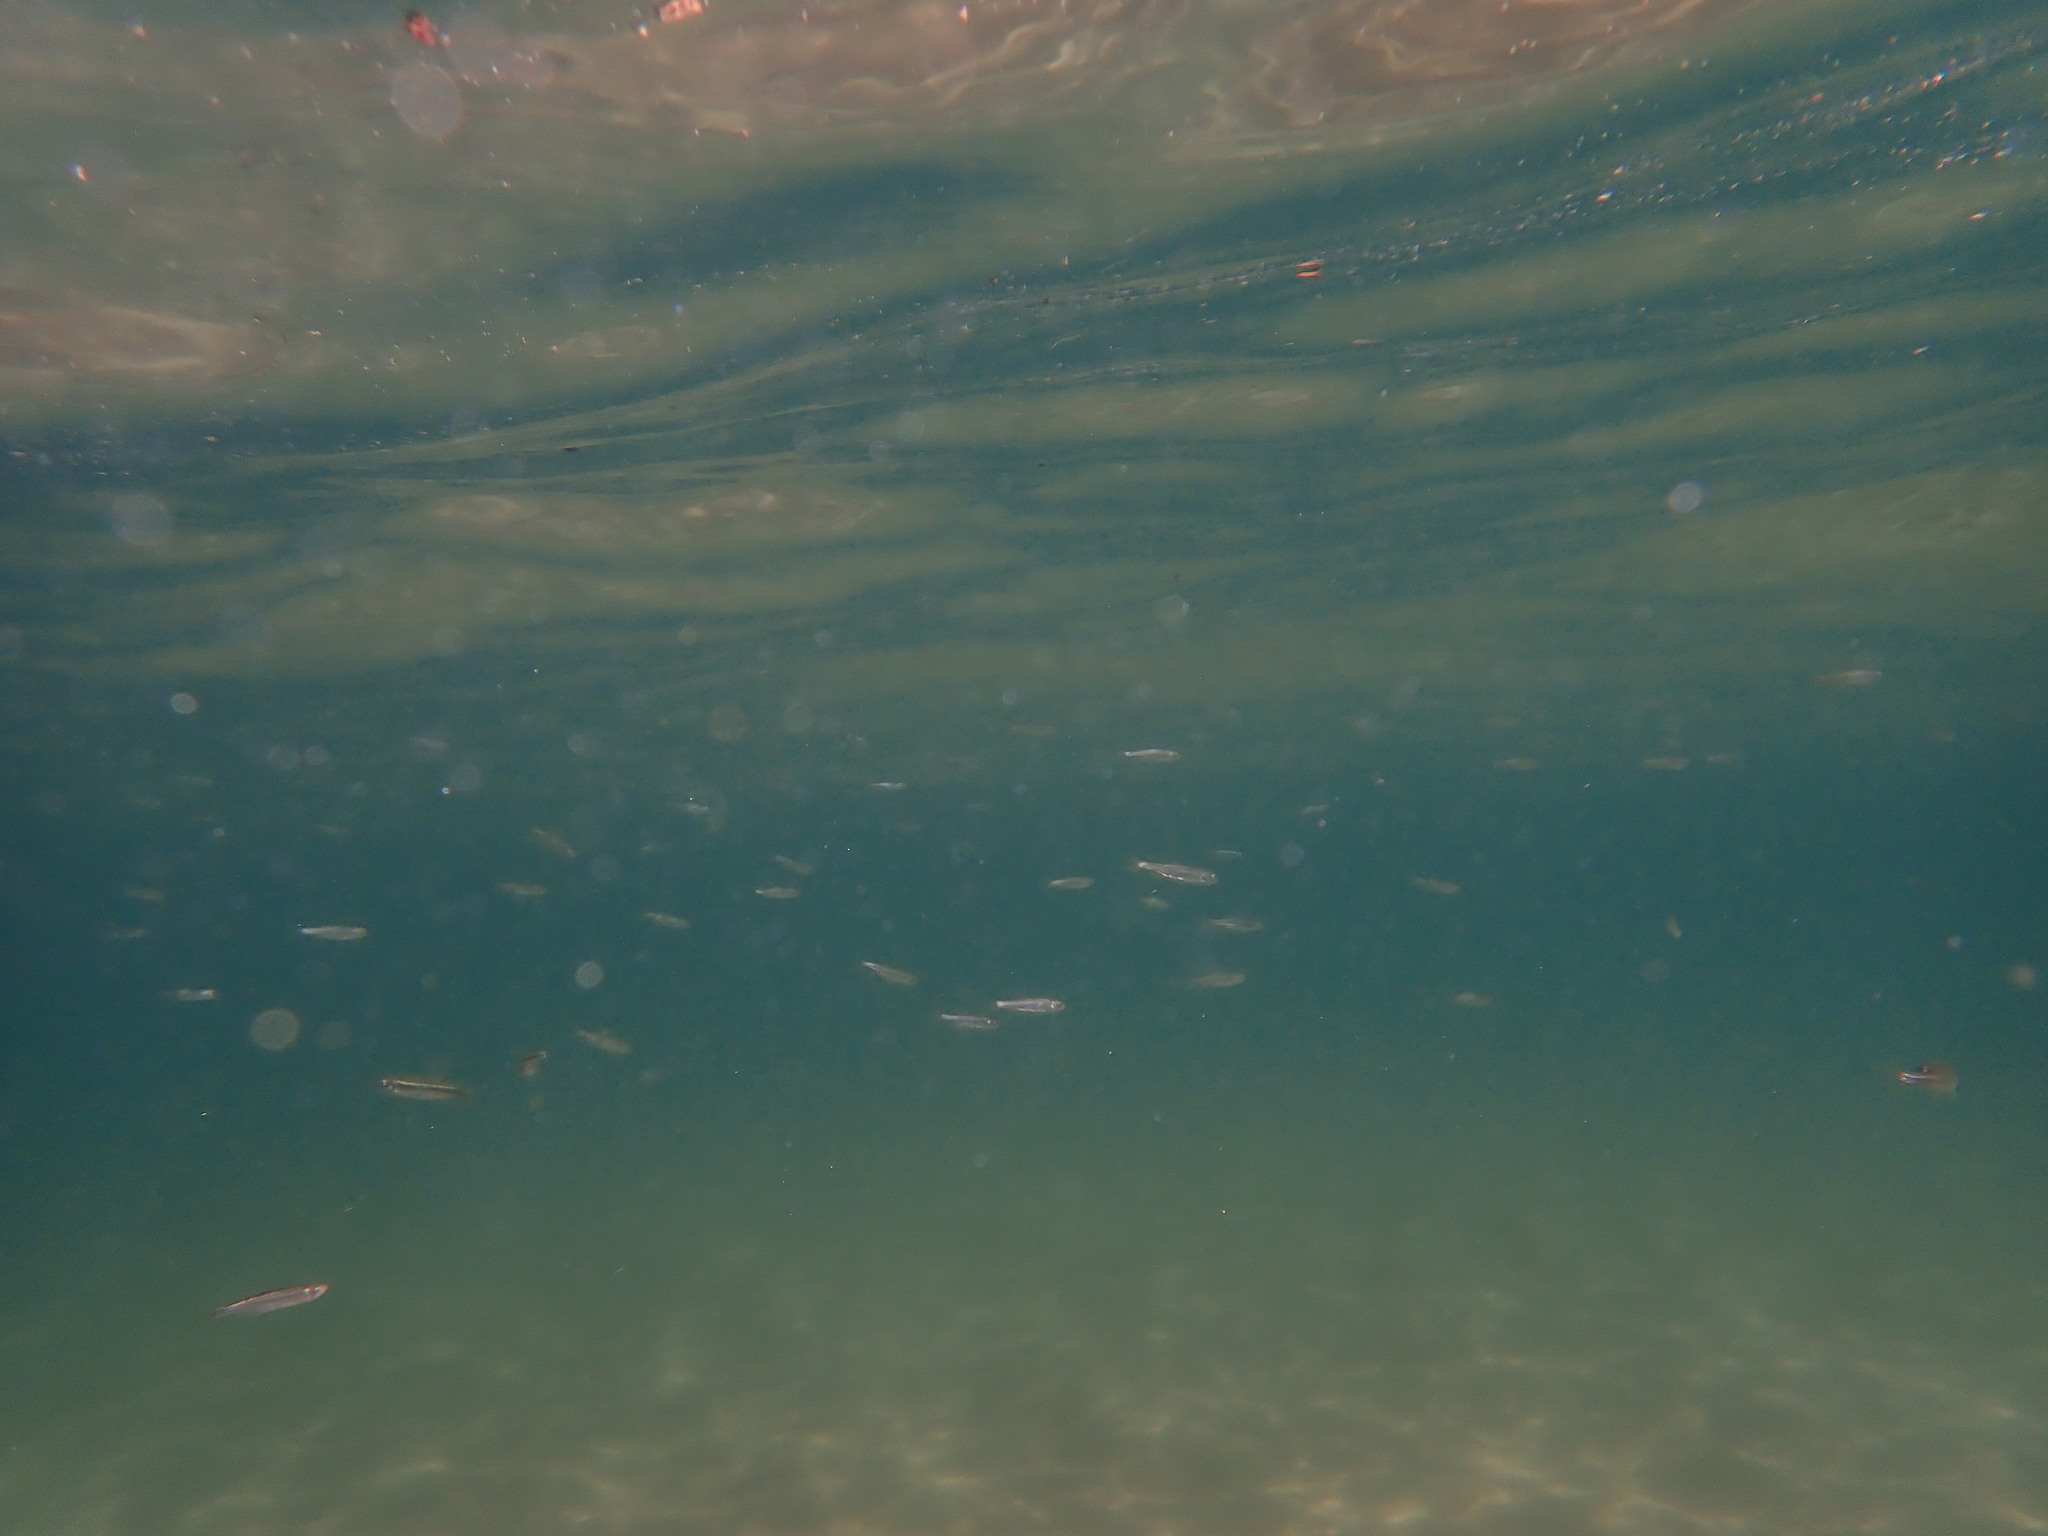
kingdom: Animalia
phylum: Chordata
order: Cypriniformes
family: Cyprinidae
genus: Richardsonius
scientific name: Richardsonius egregius
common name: Lahontan redside
